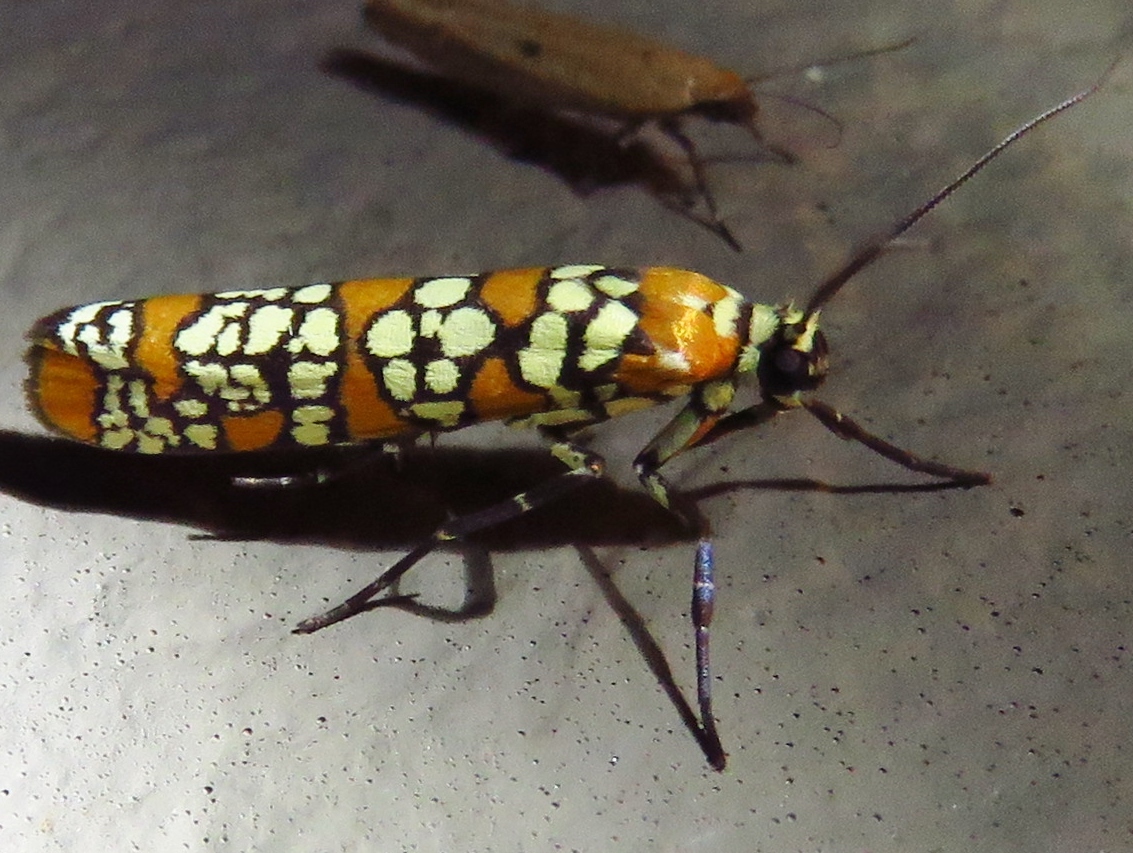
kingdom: Animalia
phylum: Arthropoda
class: Insecta
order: Lepidoptera
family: Attevidae
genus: Atteva
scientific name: Atteva punctella
